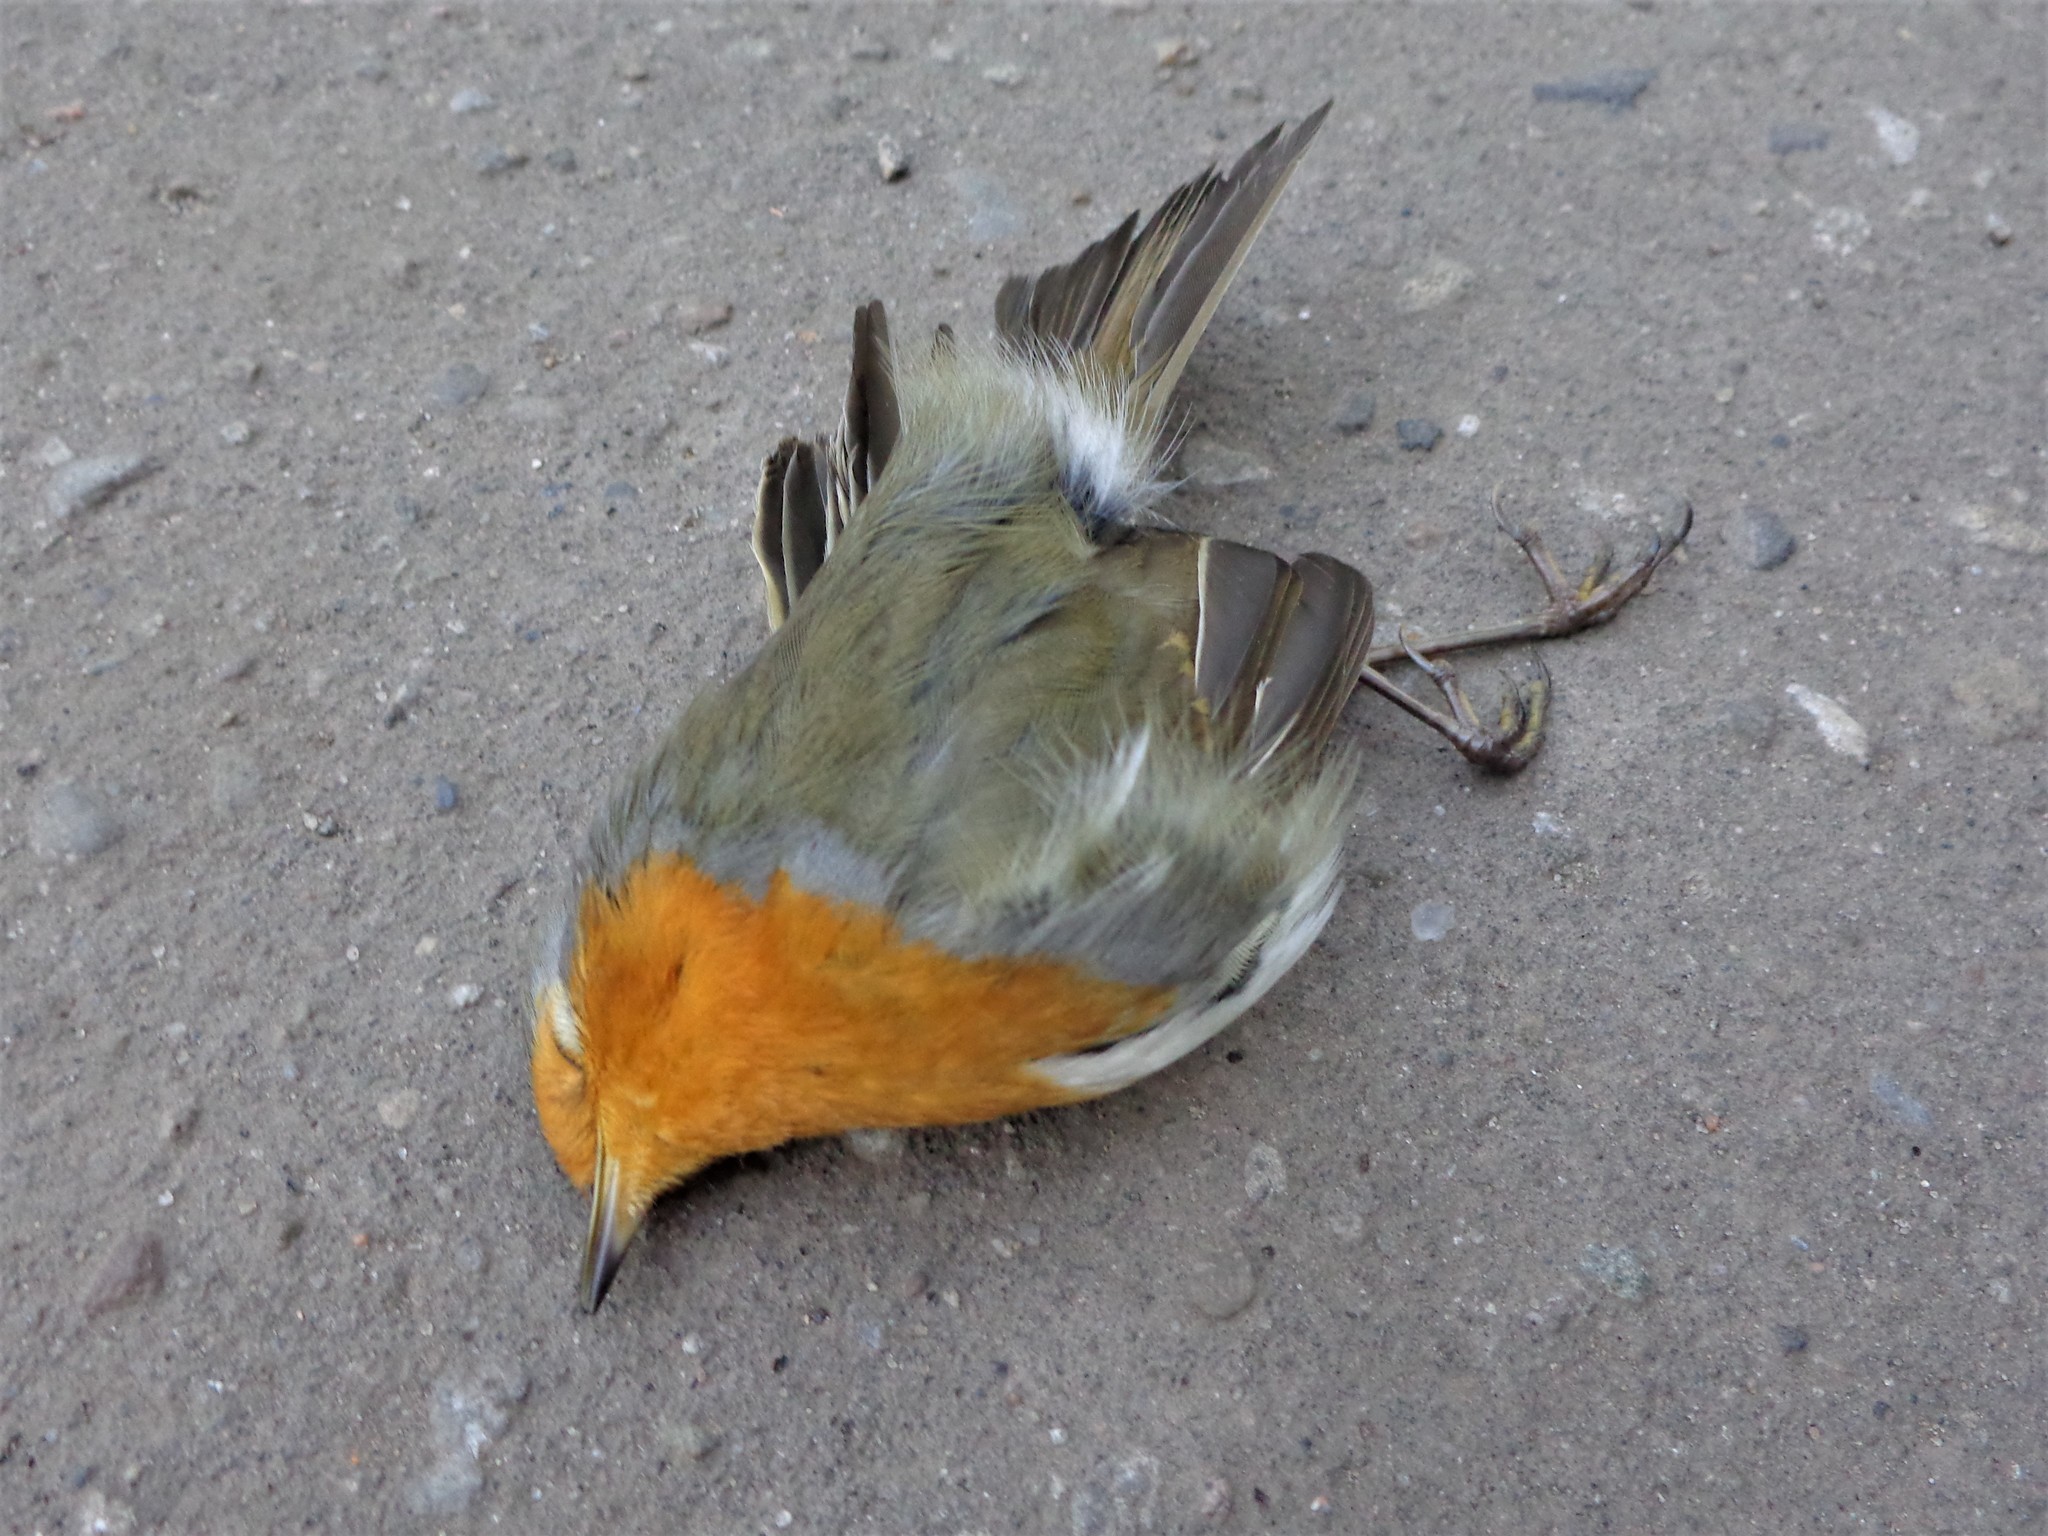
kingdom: Animalia
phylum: Chordata
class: Aves
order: Passeriformes
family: Muscicapidae
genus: Erithacus
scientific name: Erithacus rubecula
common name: European robin
